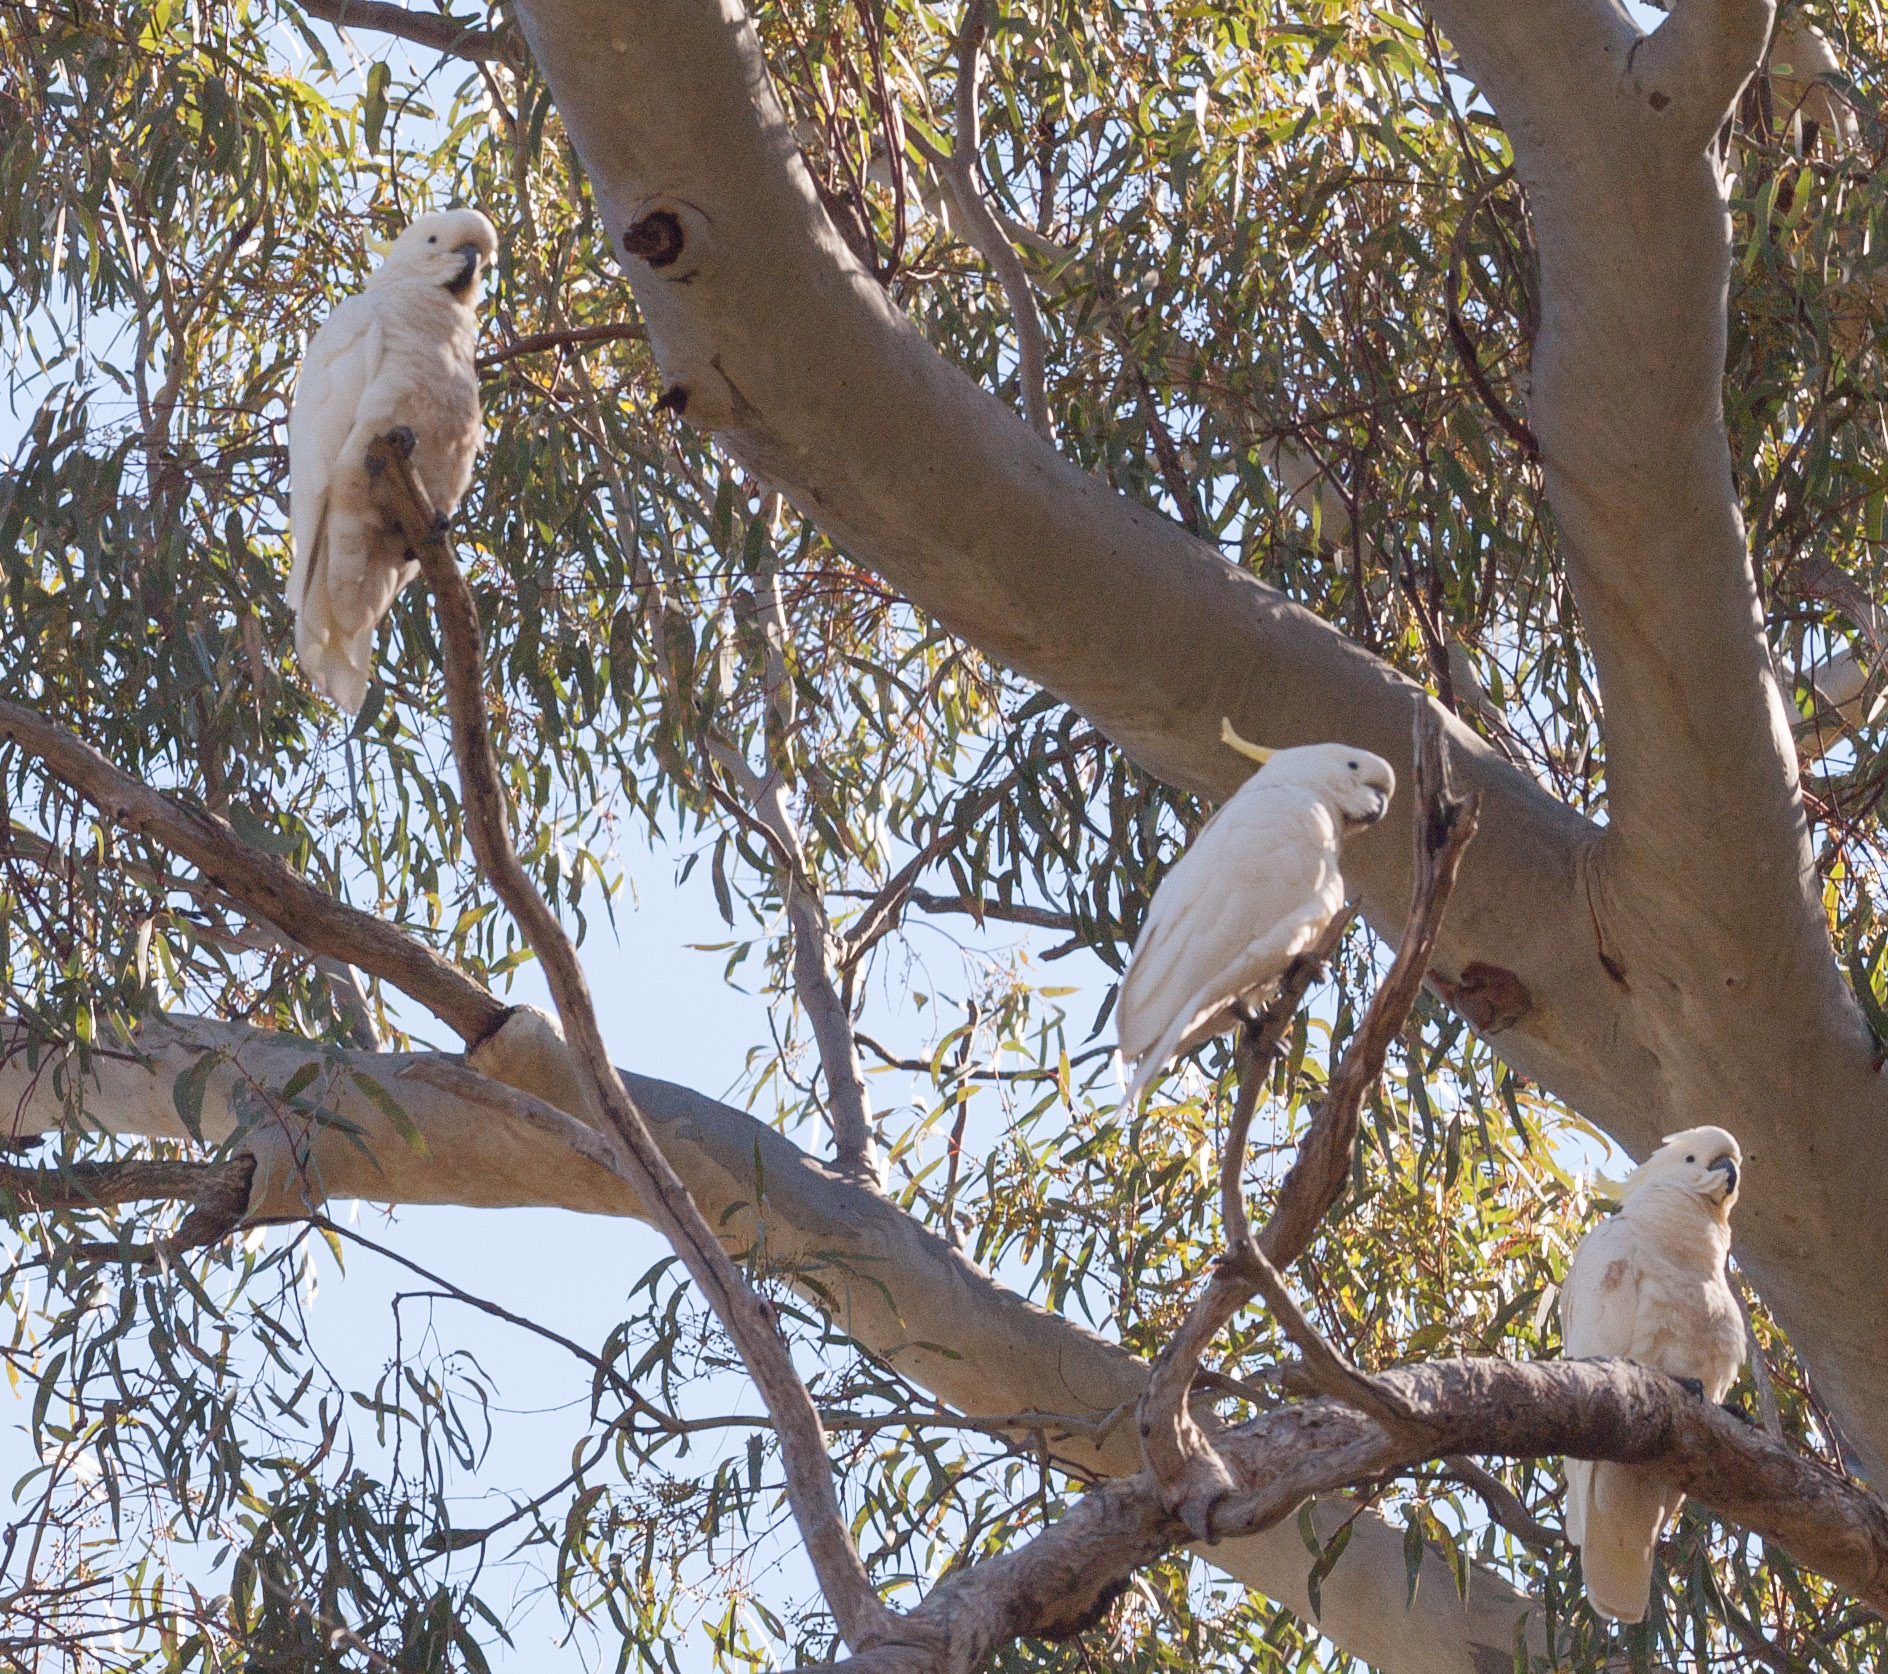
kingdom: Animalia
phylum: Chordata
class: Aves
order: Psittaciformes
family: Psittacidae
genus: Cacatua
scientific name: Cacatua galerita
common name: Sulphur-crested cockatoo
